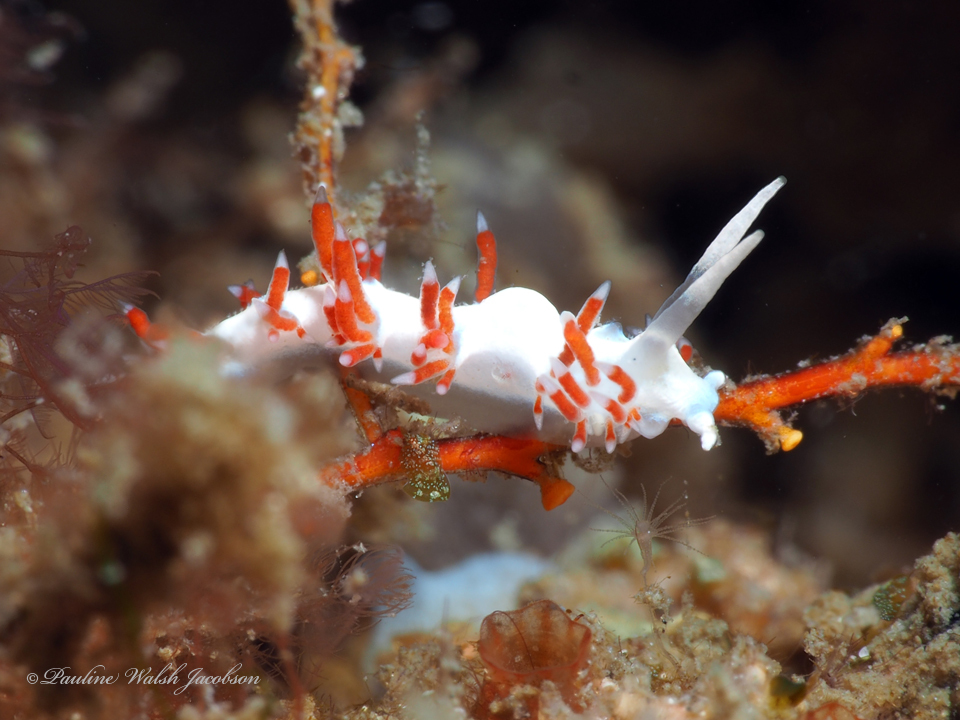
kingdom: Animalia
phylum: Mollusca
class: Gastropoda
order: Nudibranchia
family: Flabellinidae
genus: Flabellina
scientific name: Flabellina dushia
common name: Dushia flabellina
